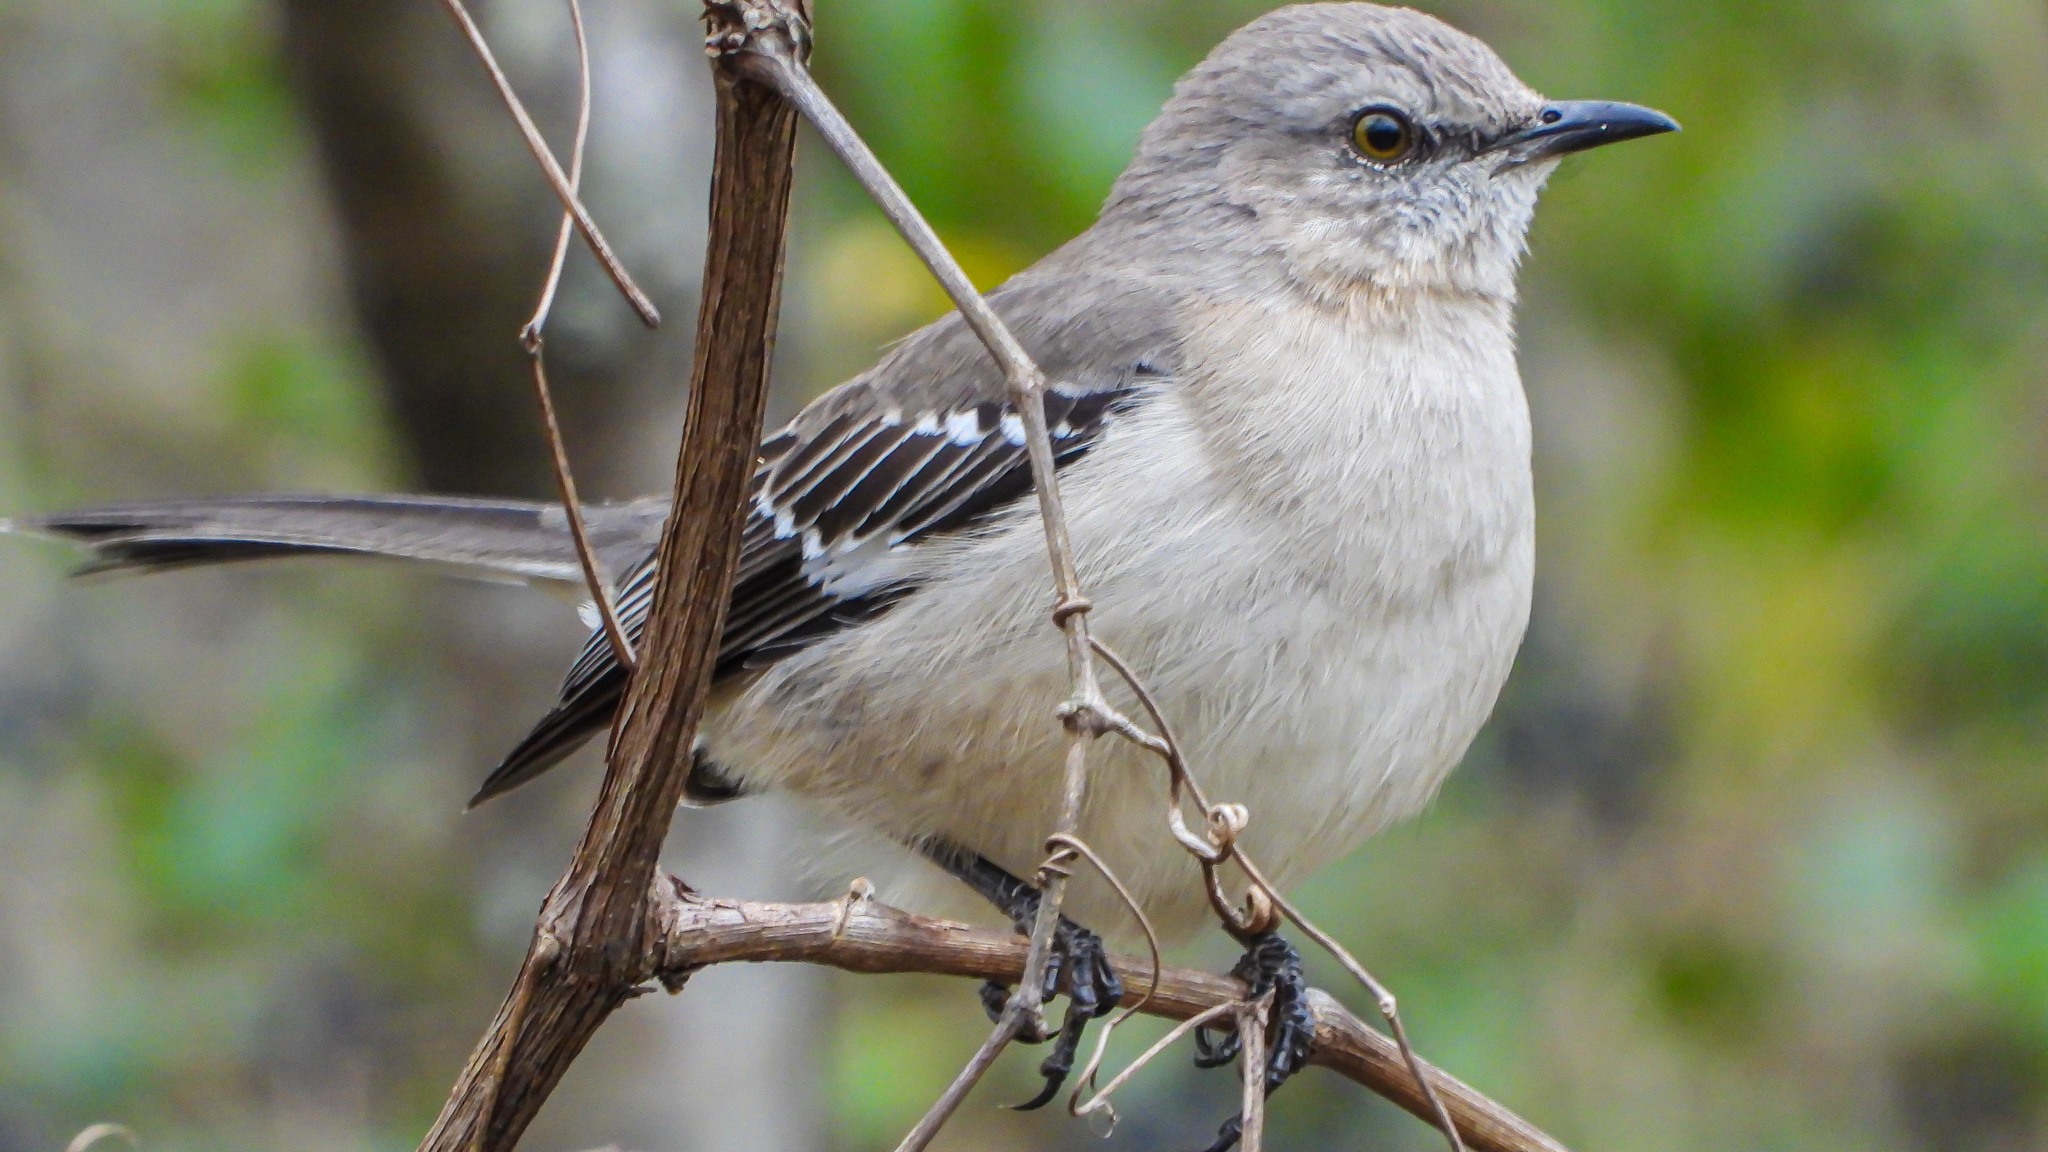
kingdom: Animalia
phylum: Chordata
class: Aves
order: Passeriformes
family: Mimidae
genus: Mimus
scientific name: Mimus polyglottos
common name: Northern mockingbird
